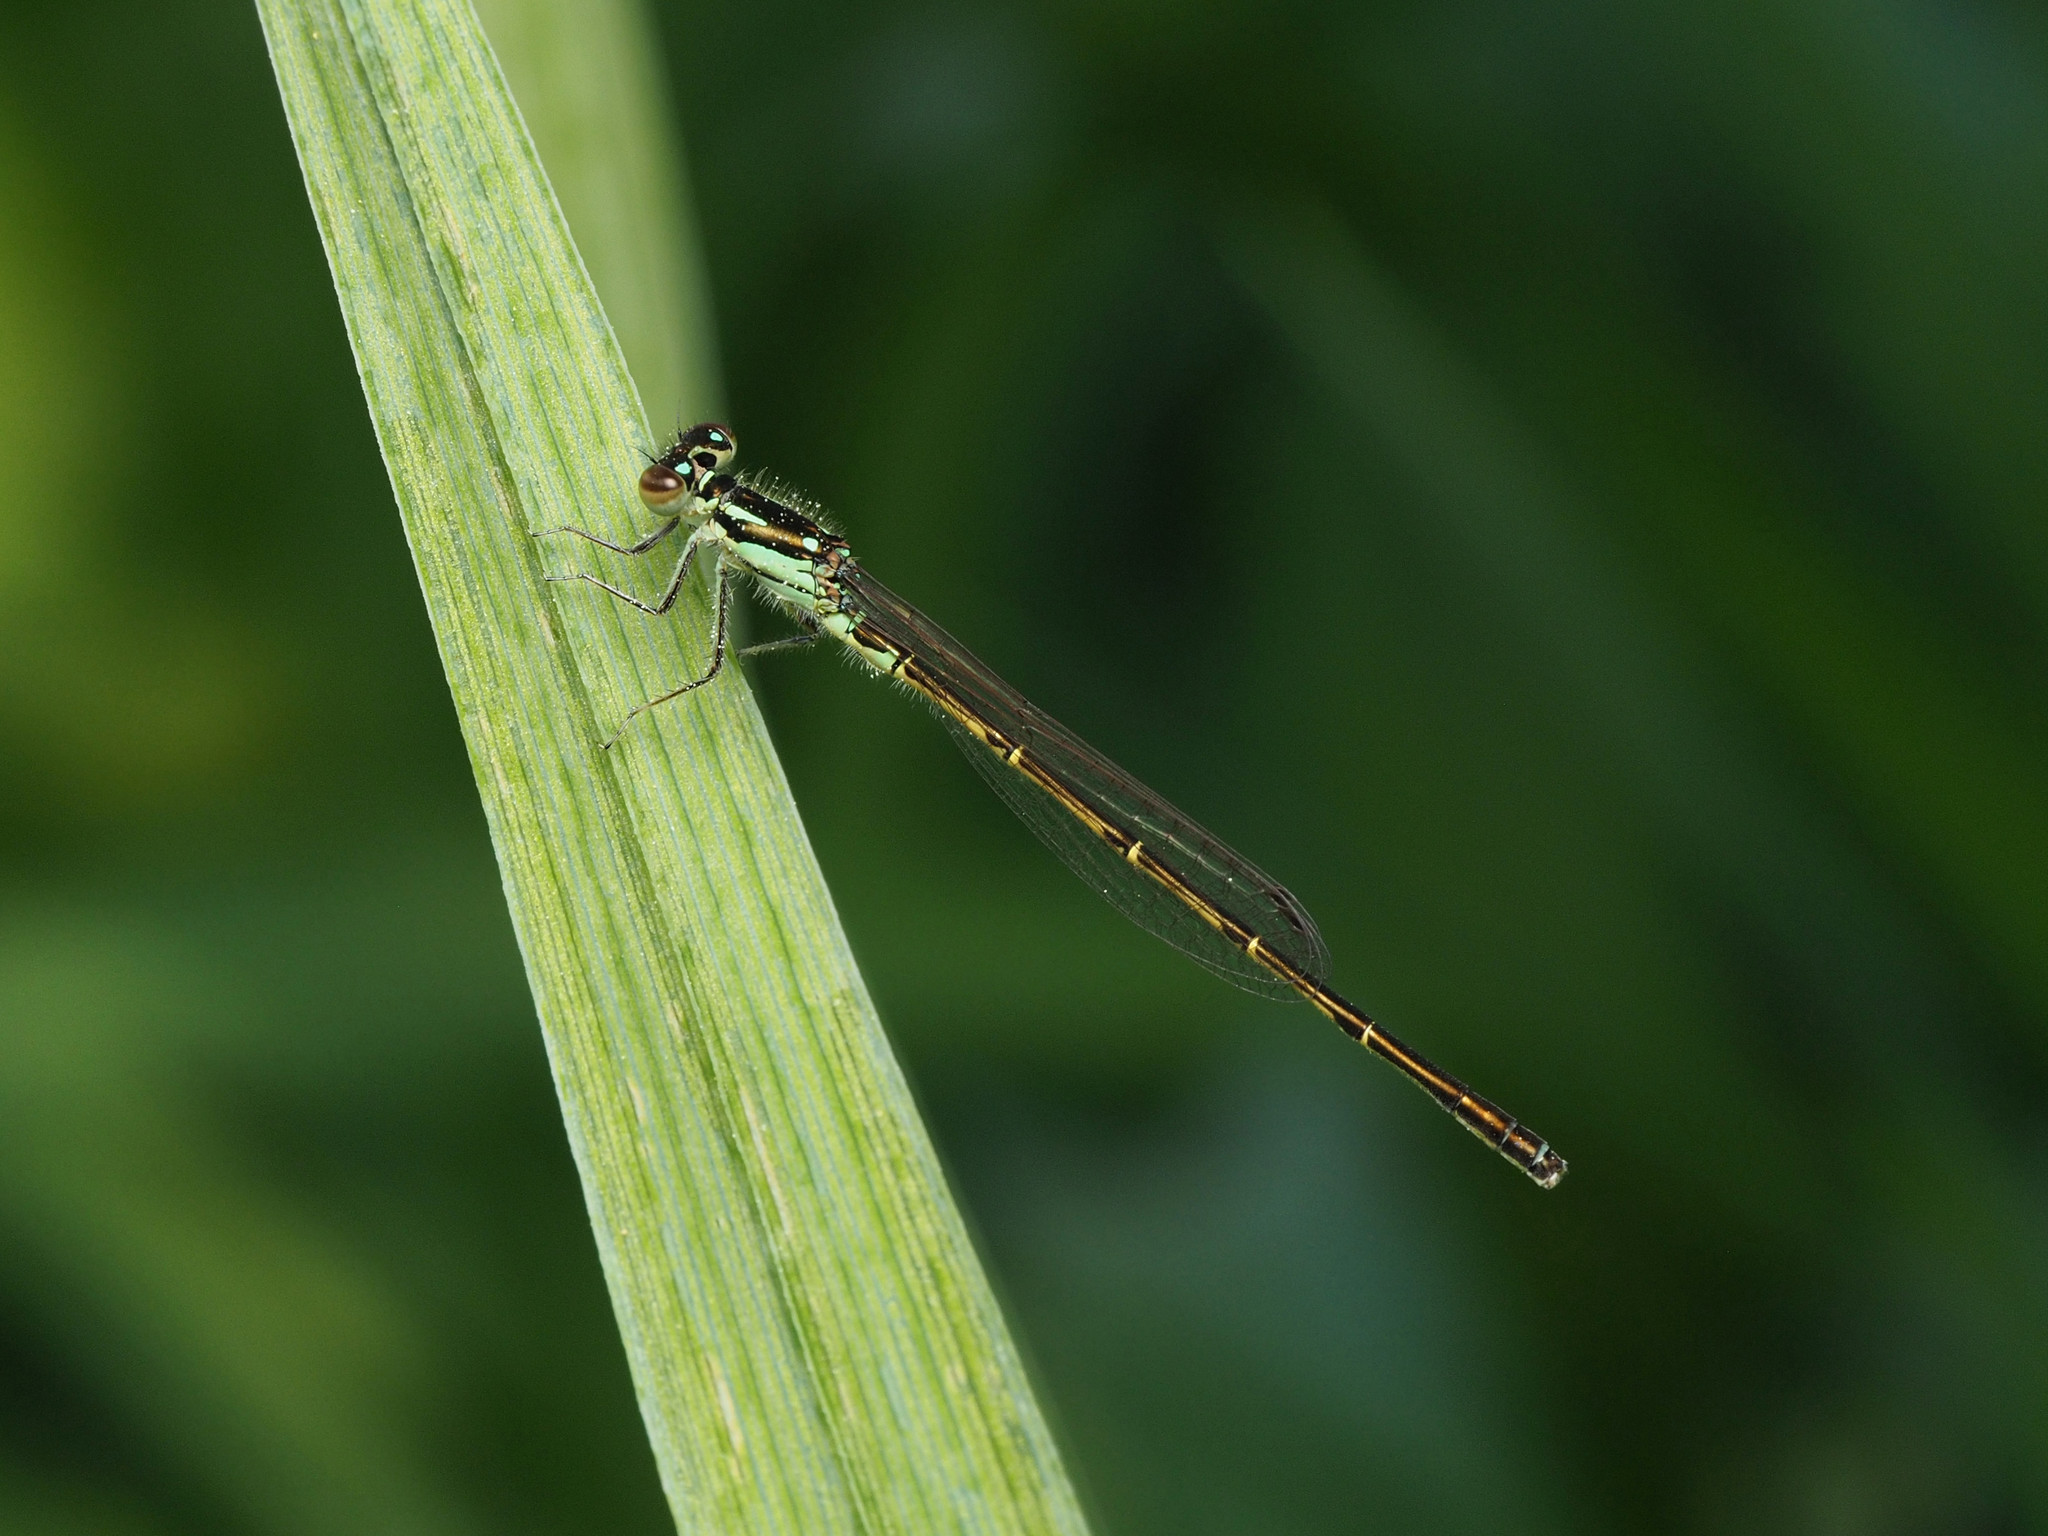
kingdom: Animalia
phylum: Arthropoda
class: Insecta
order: Odonata
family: Coenagrionidae
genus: Ischnura
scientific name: Ischnura posita
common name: Fragile forktail
